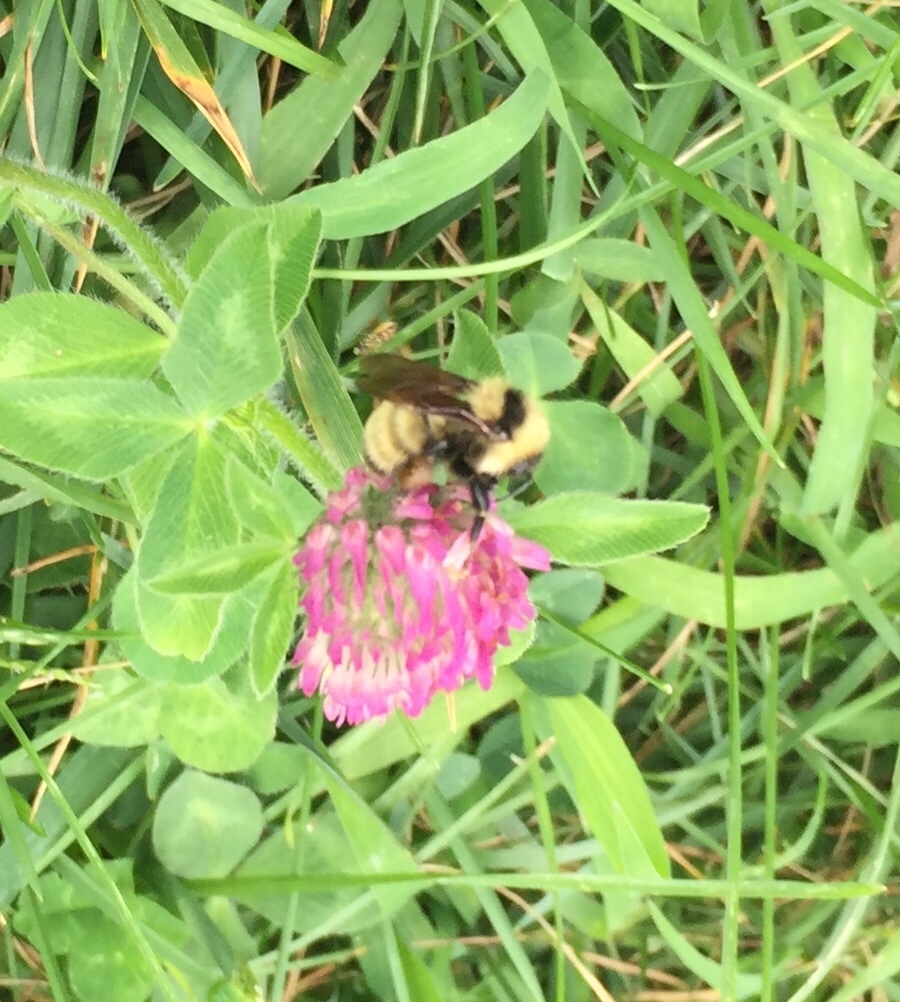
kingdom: Animalia
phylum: Arthropoda
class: Insecta
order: Hymenoptera
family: Apidae
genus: Bombus
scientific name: Bombus fervidus
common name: Yellow bumble bee
